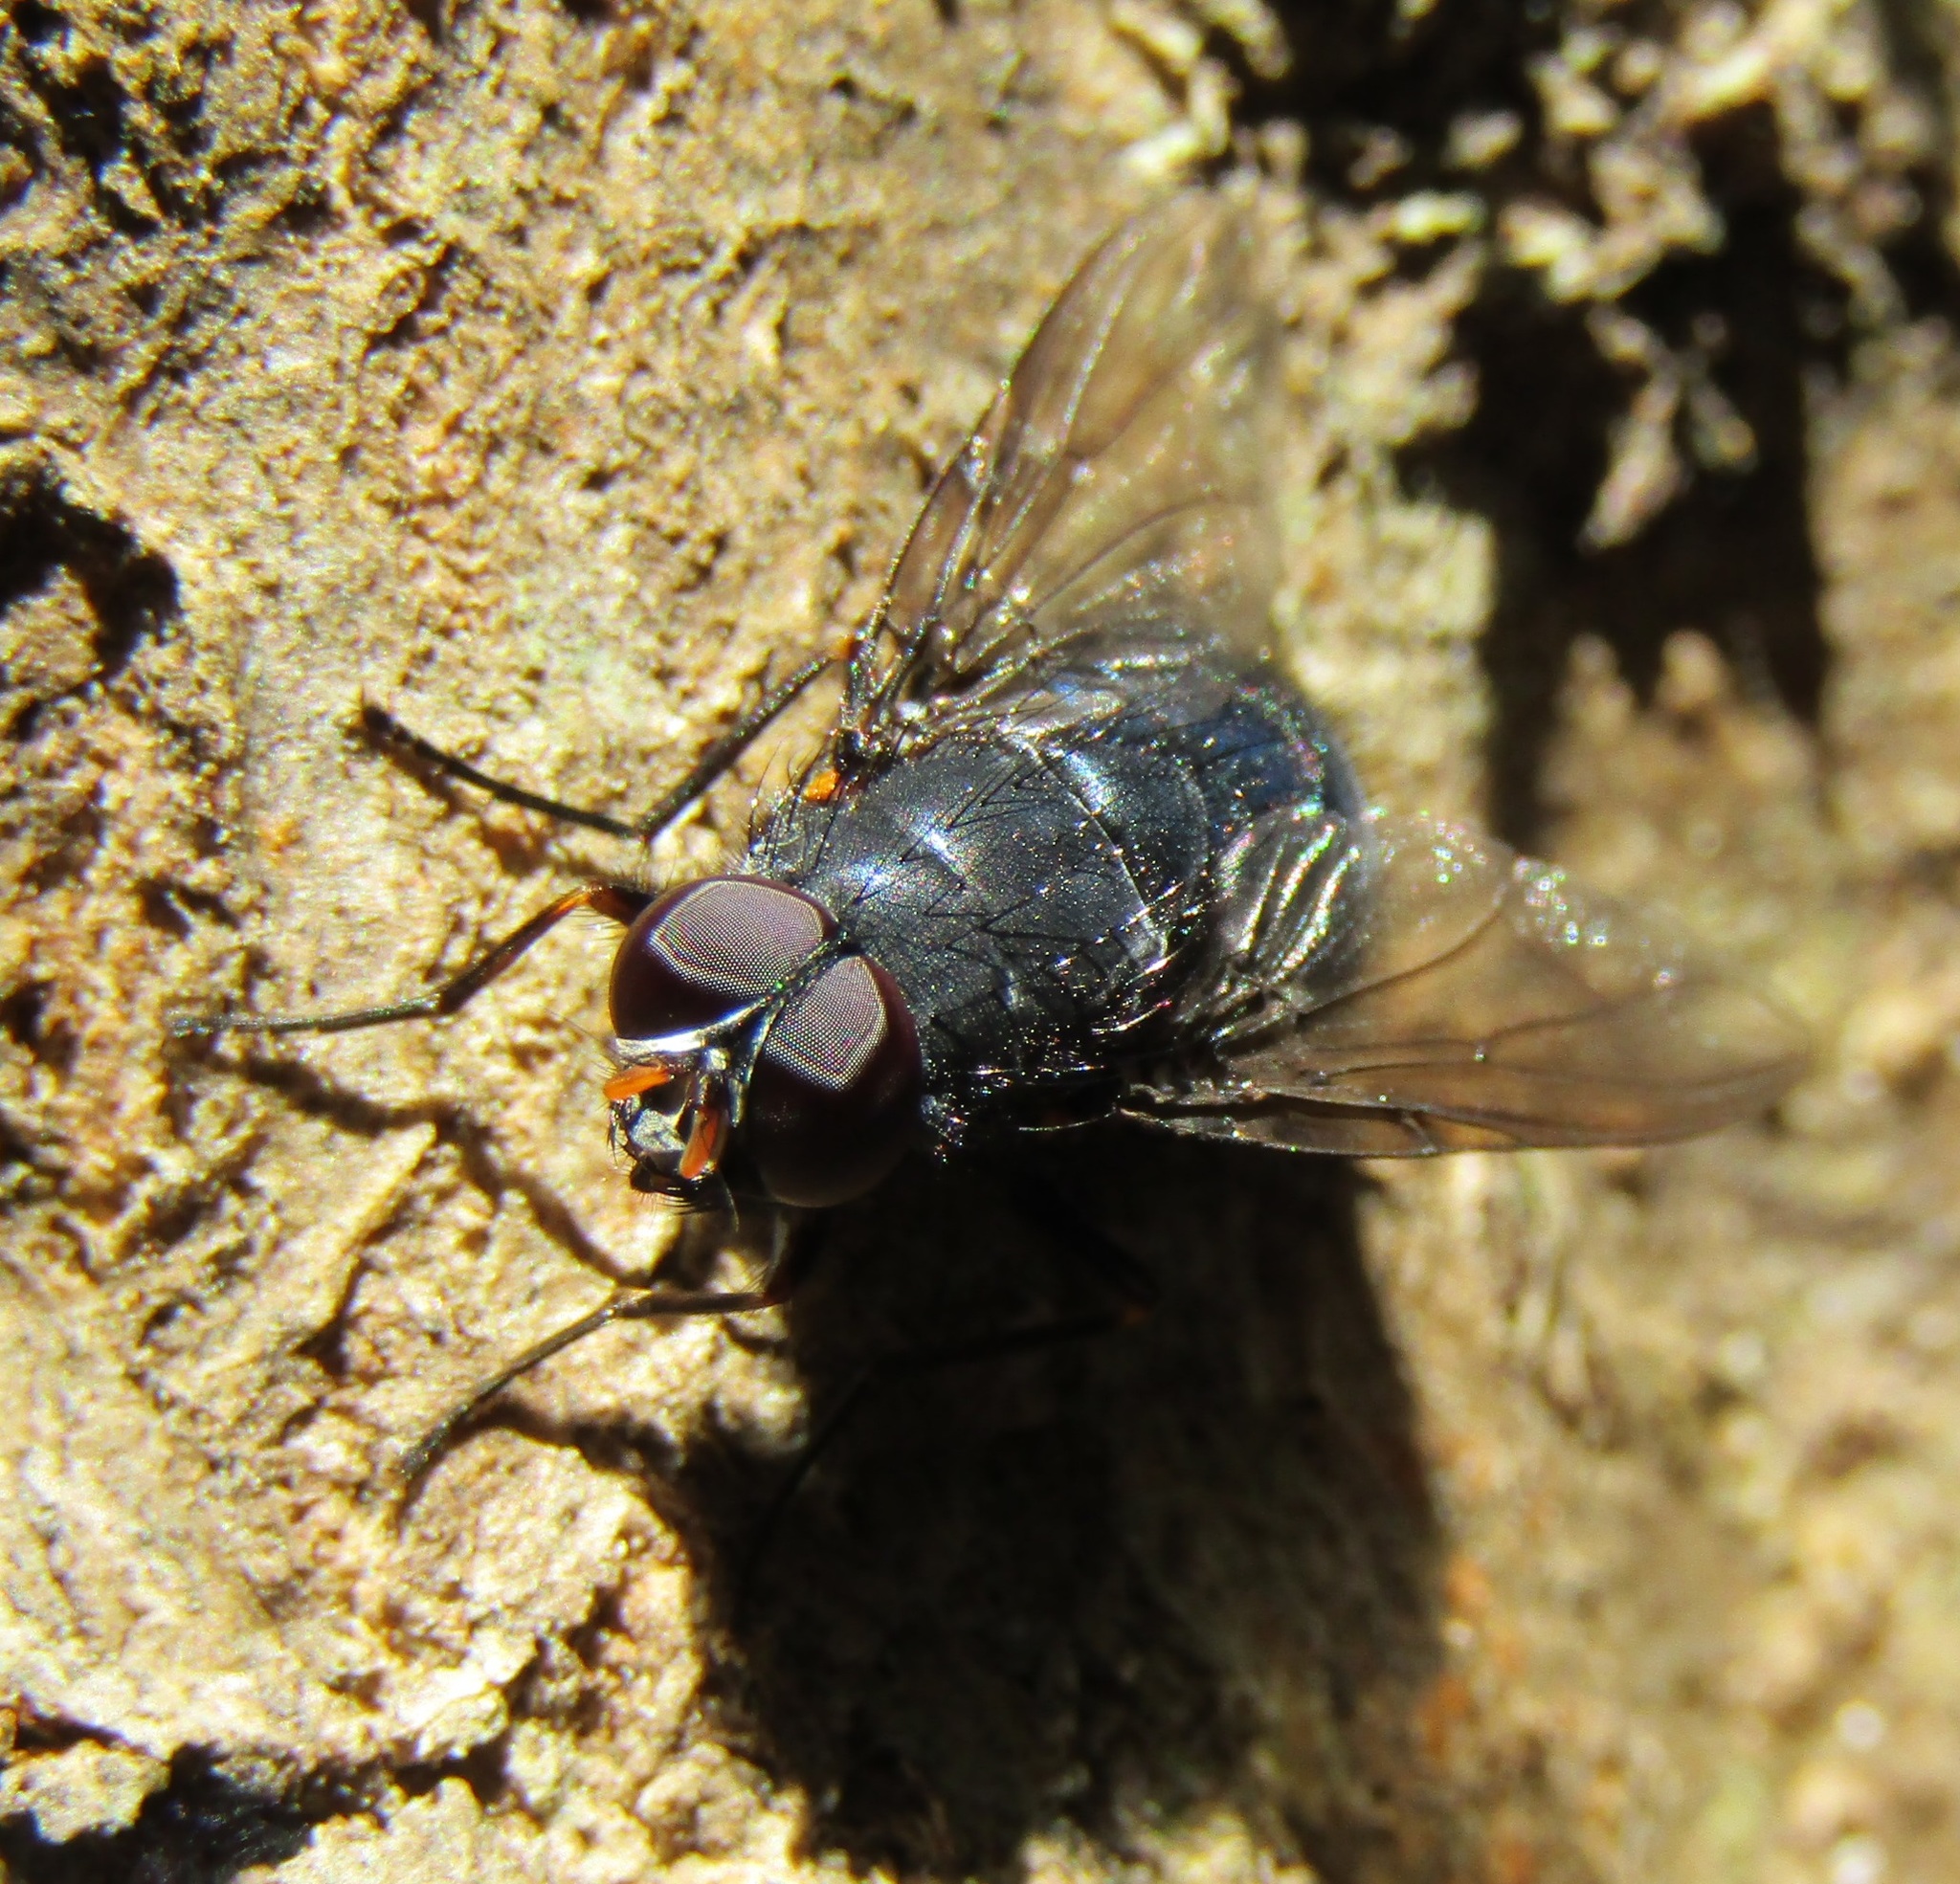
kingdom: Animalia
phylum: Arthropoda
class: Insecta
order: Diptera
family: Muscidae
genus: Calliphoroides
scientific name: Calliphoroides antennatis
